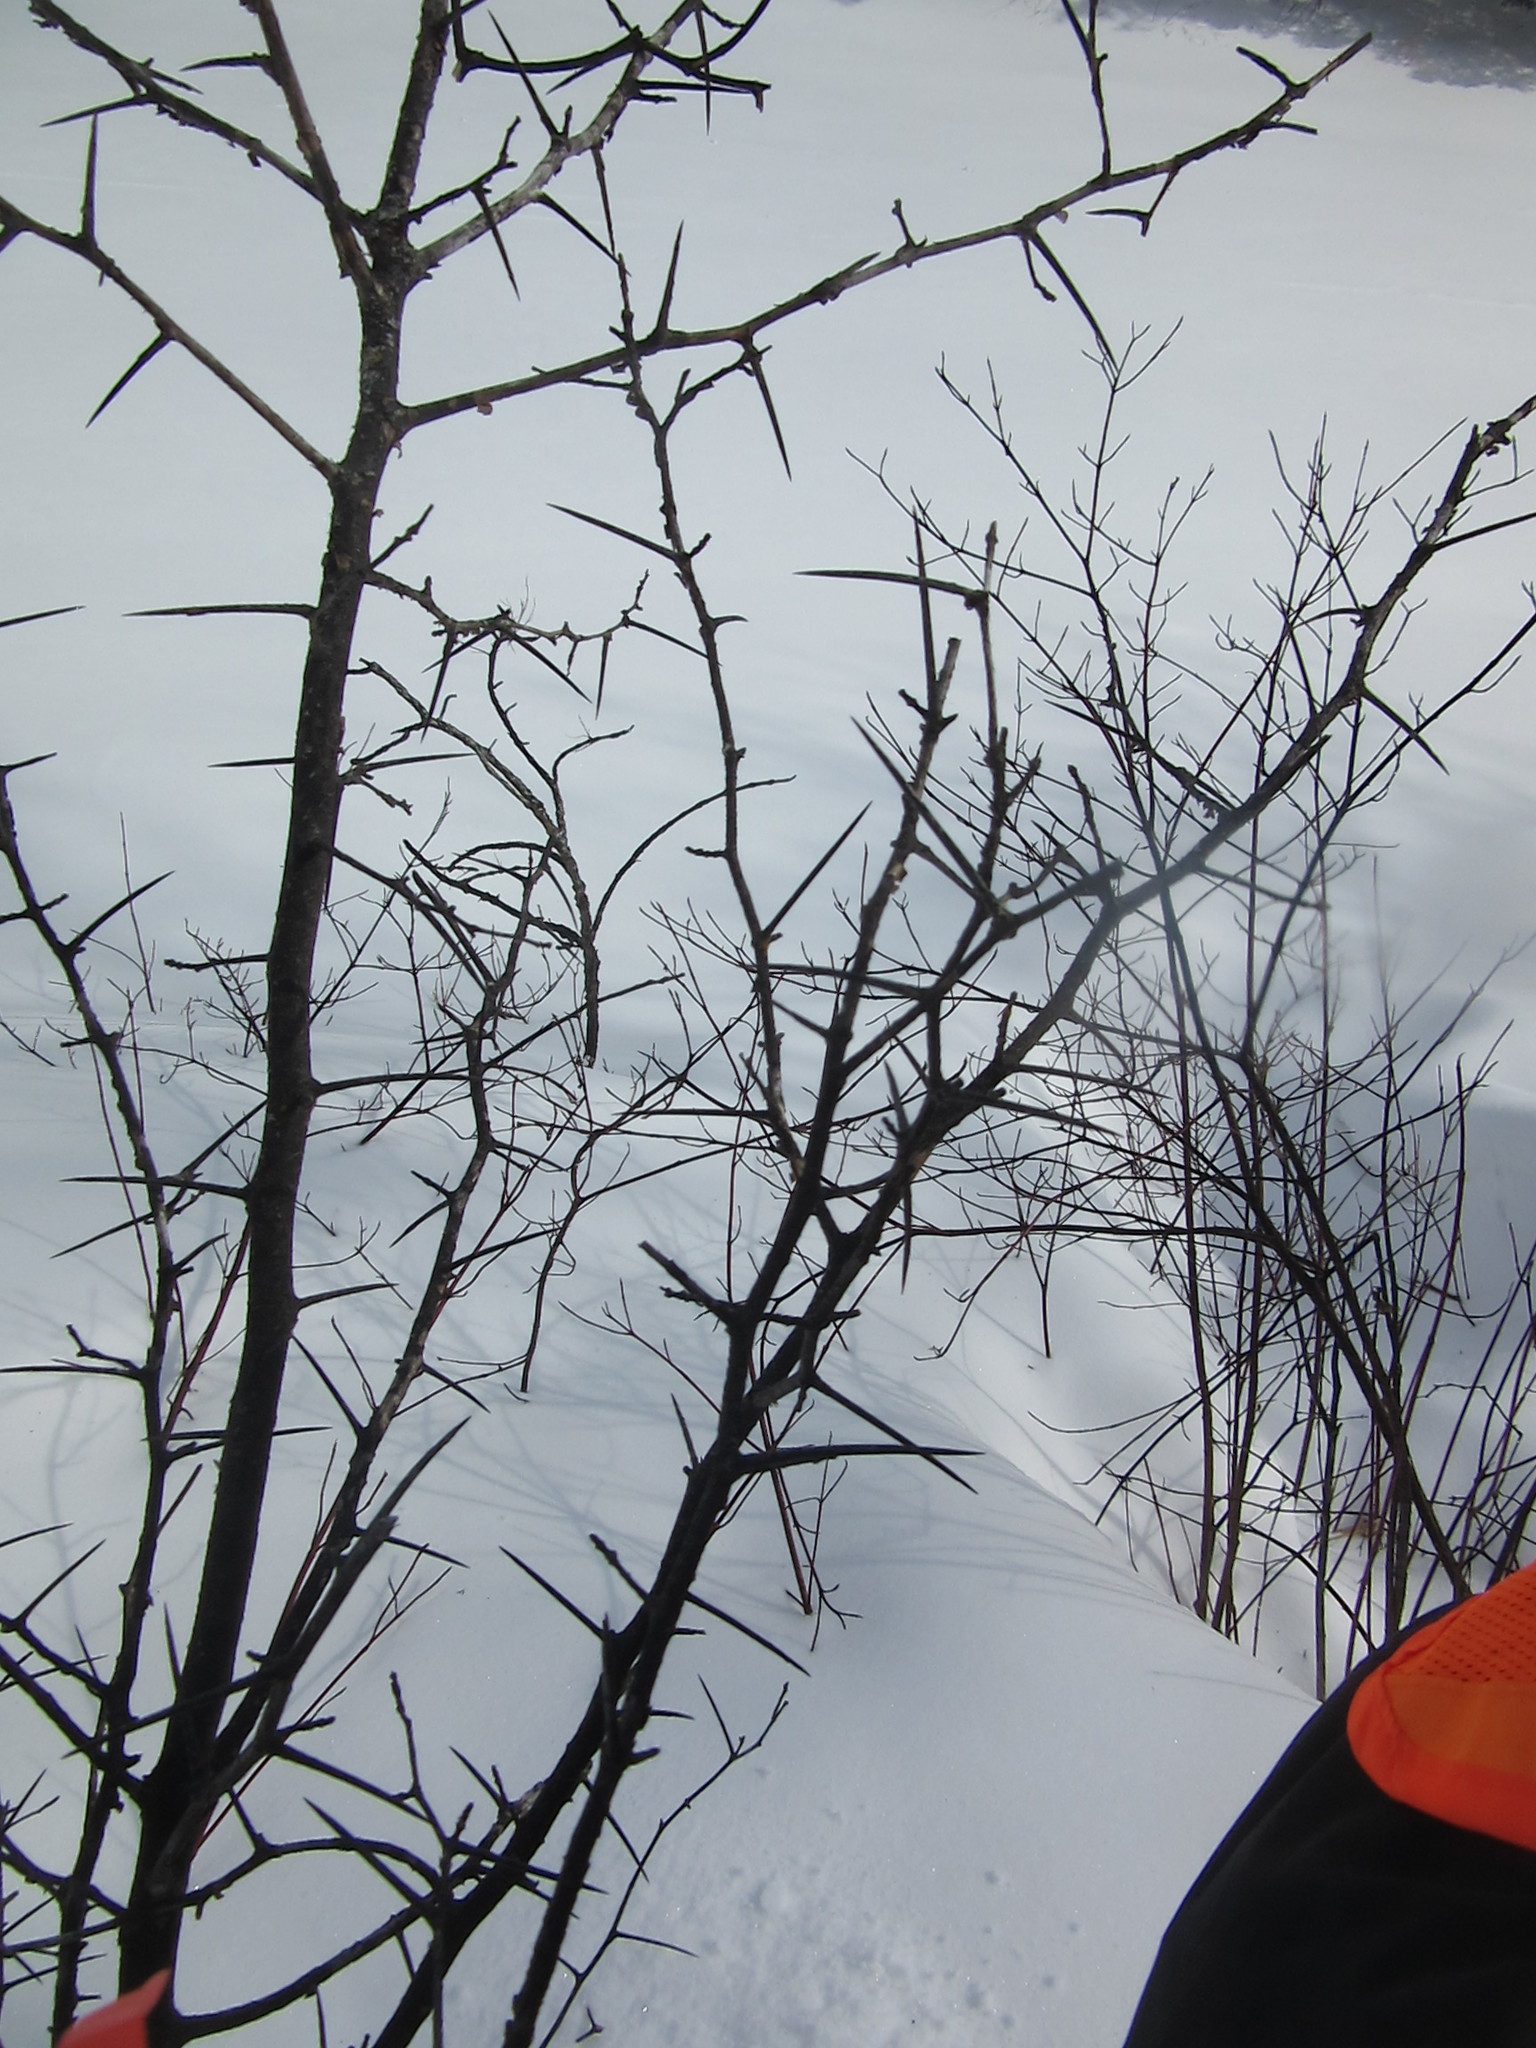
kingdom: Plantae
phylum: Tracheophyta
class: Magnoliopsida
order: Rosales
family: Rosaceae
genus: Crataegus
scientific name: Crataegus
